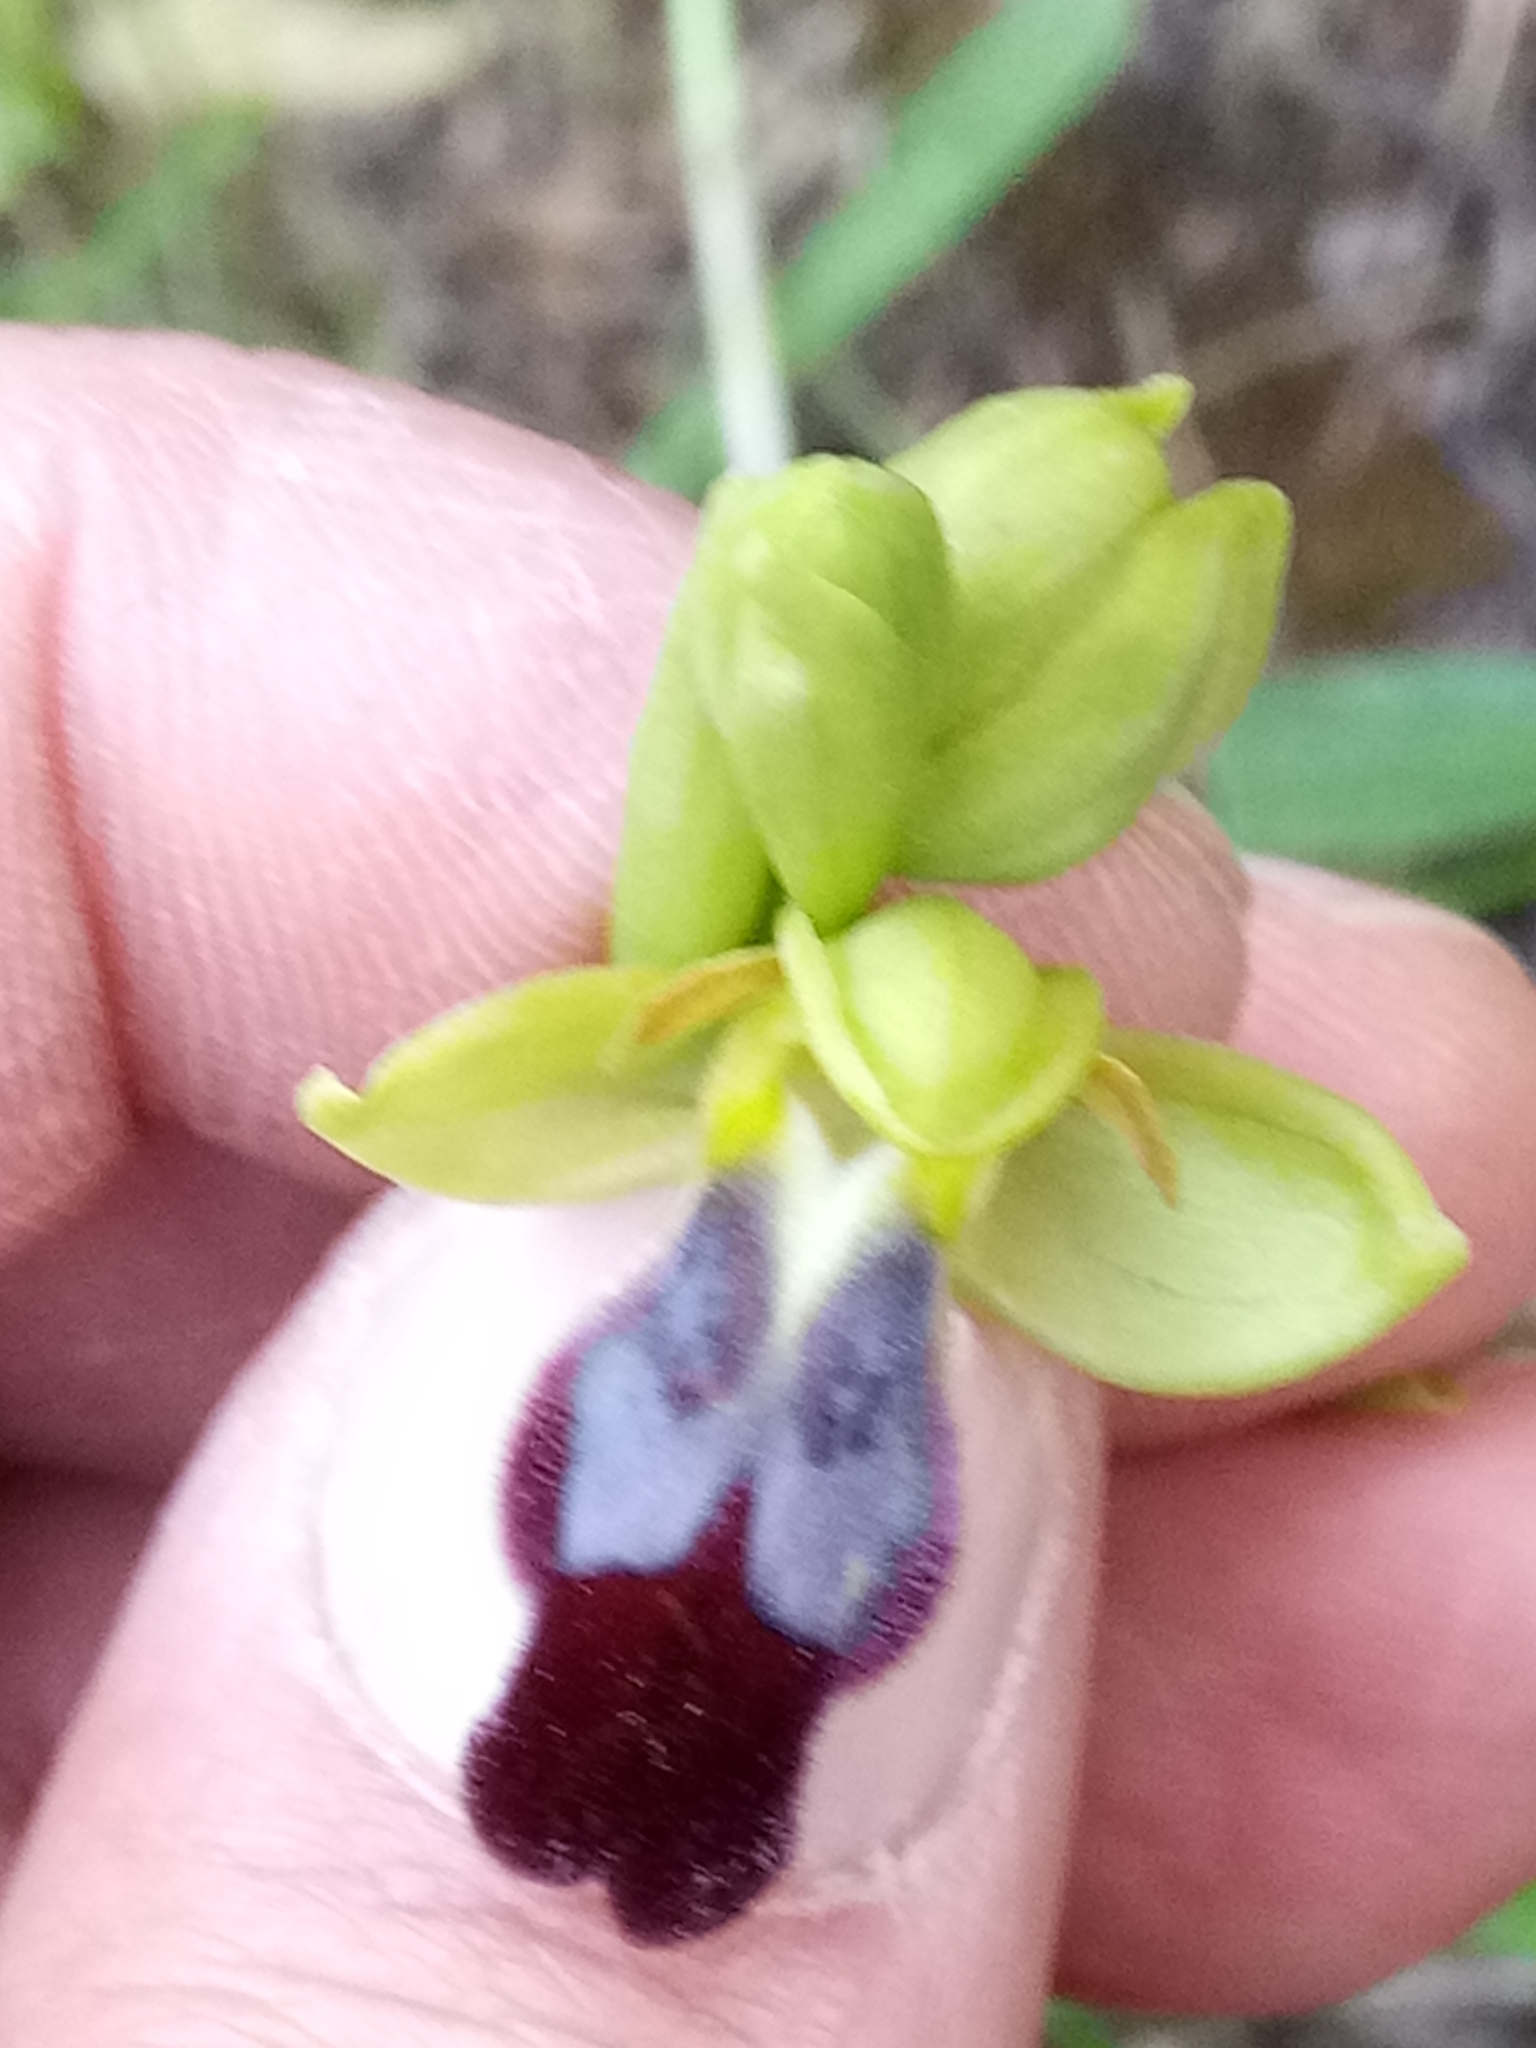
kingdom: Plantae
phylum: Tracheophyta
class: Liliopsida
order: Asparagales
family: Orchidaceae
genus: Ophrys
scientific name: Ophrys fusca
